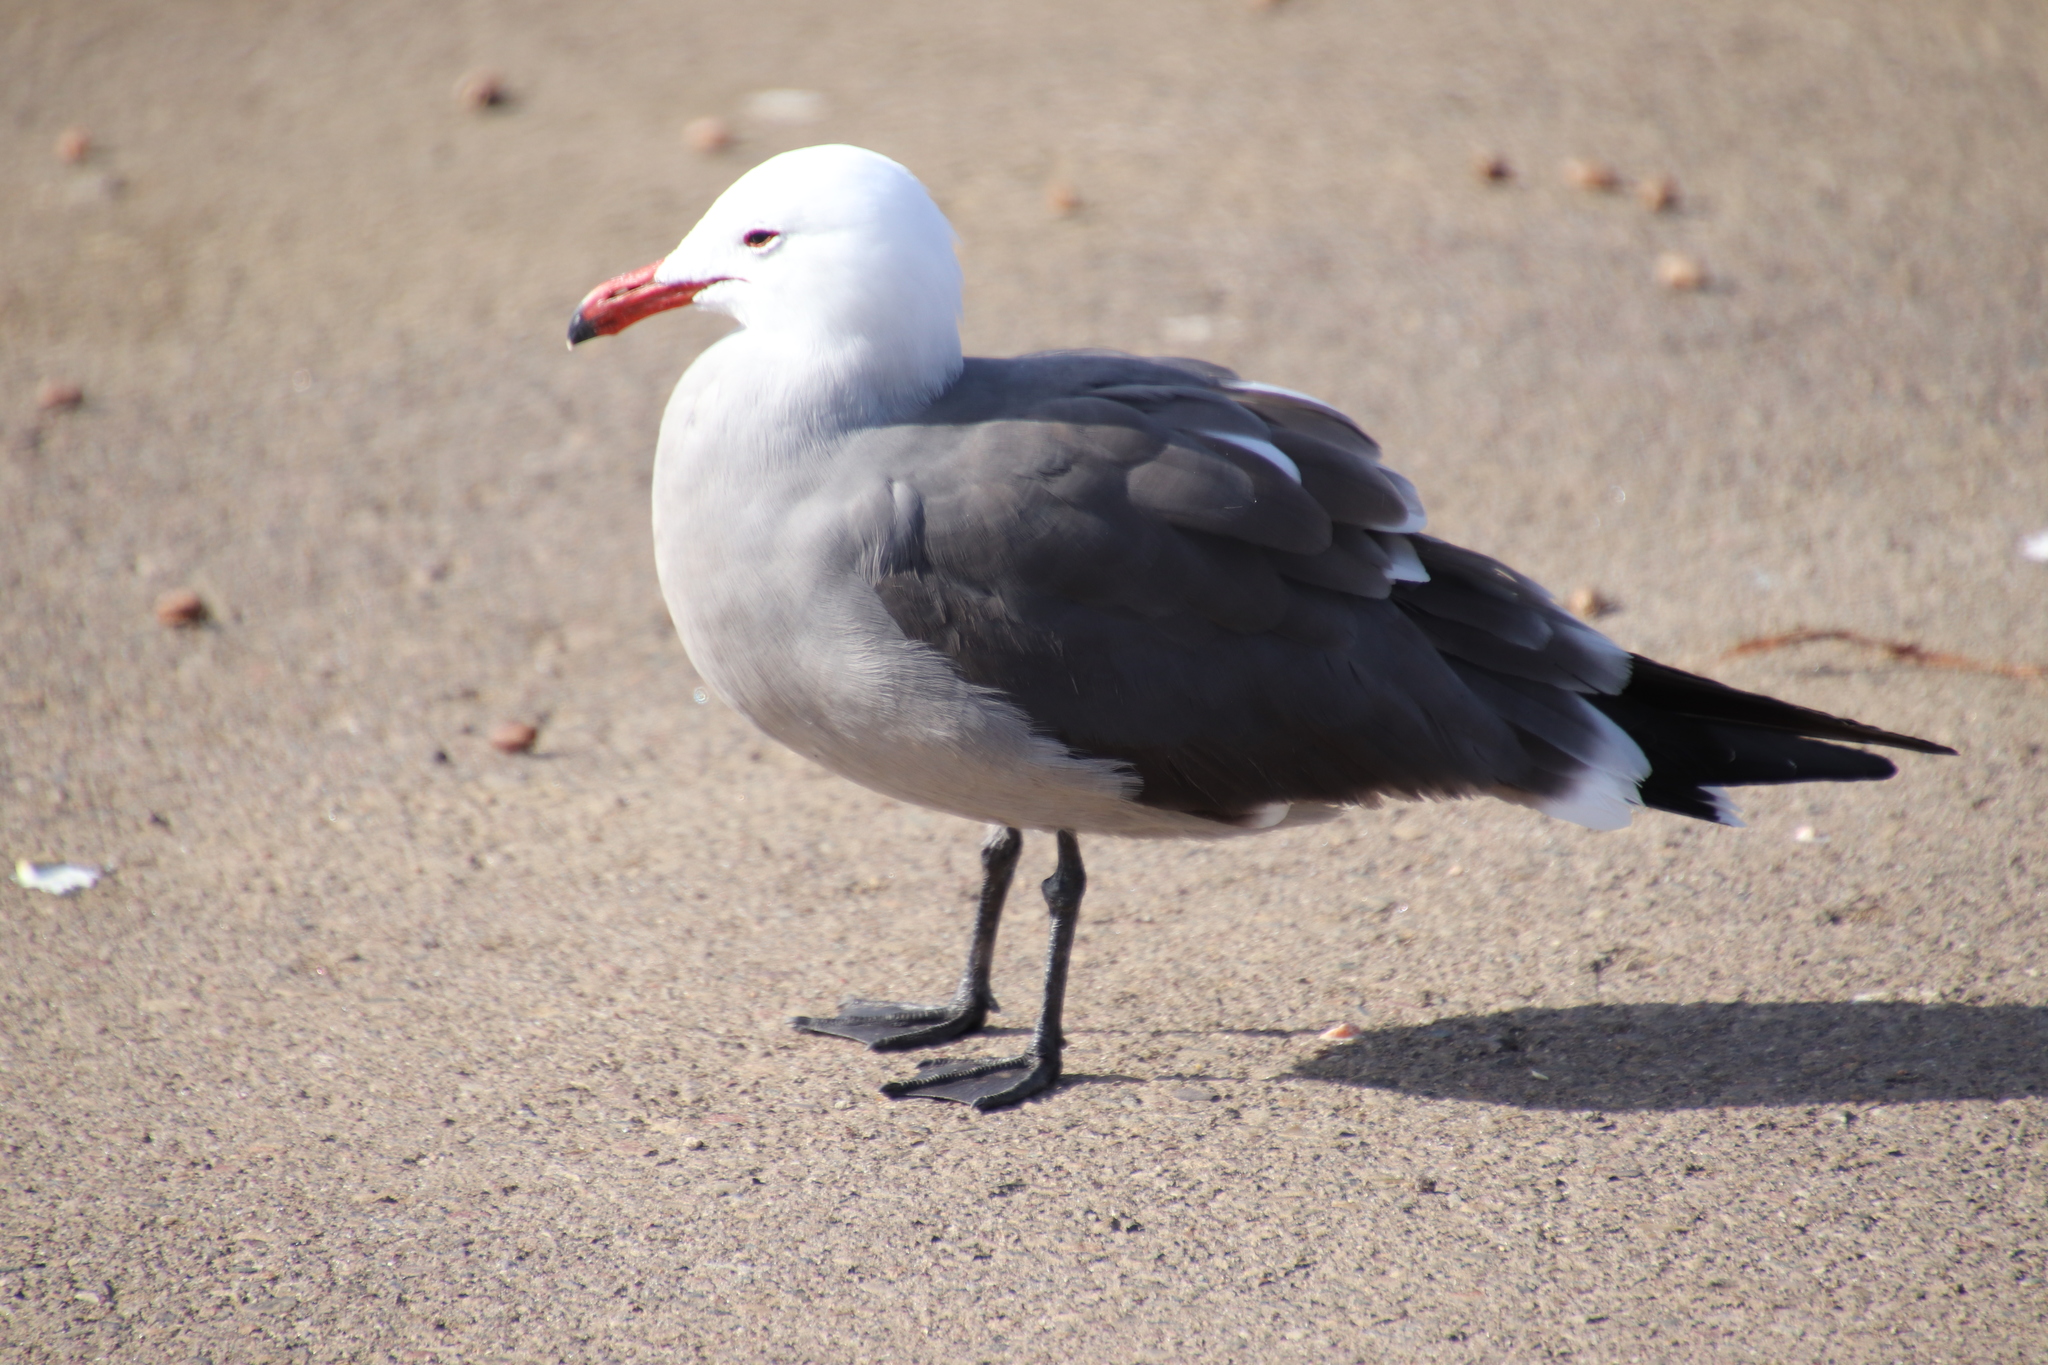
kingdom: Animalia
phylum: Chordata
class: Aves
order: Charadriiformes
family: Laridae
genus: Larus
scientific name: Larus heermanni
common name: Heermann's gull
